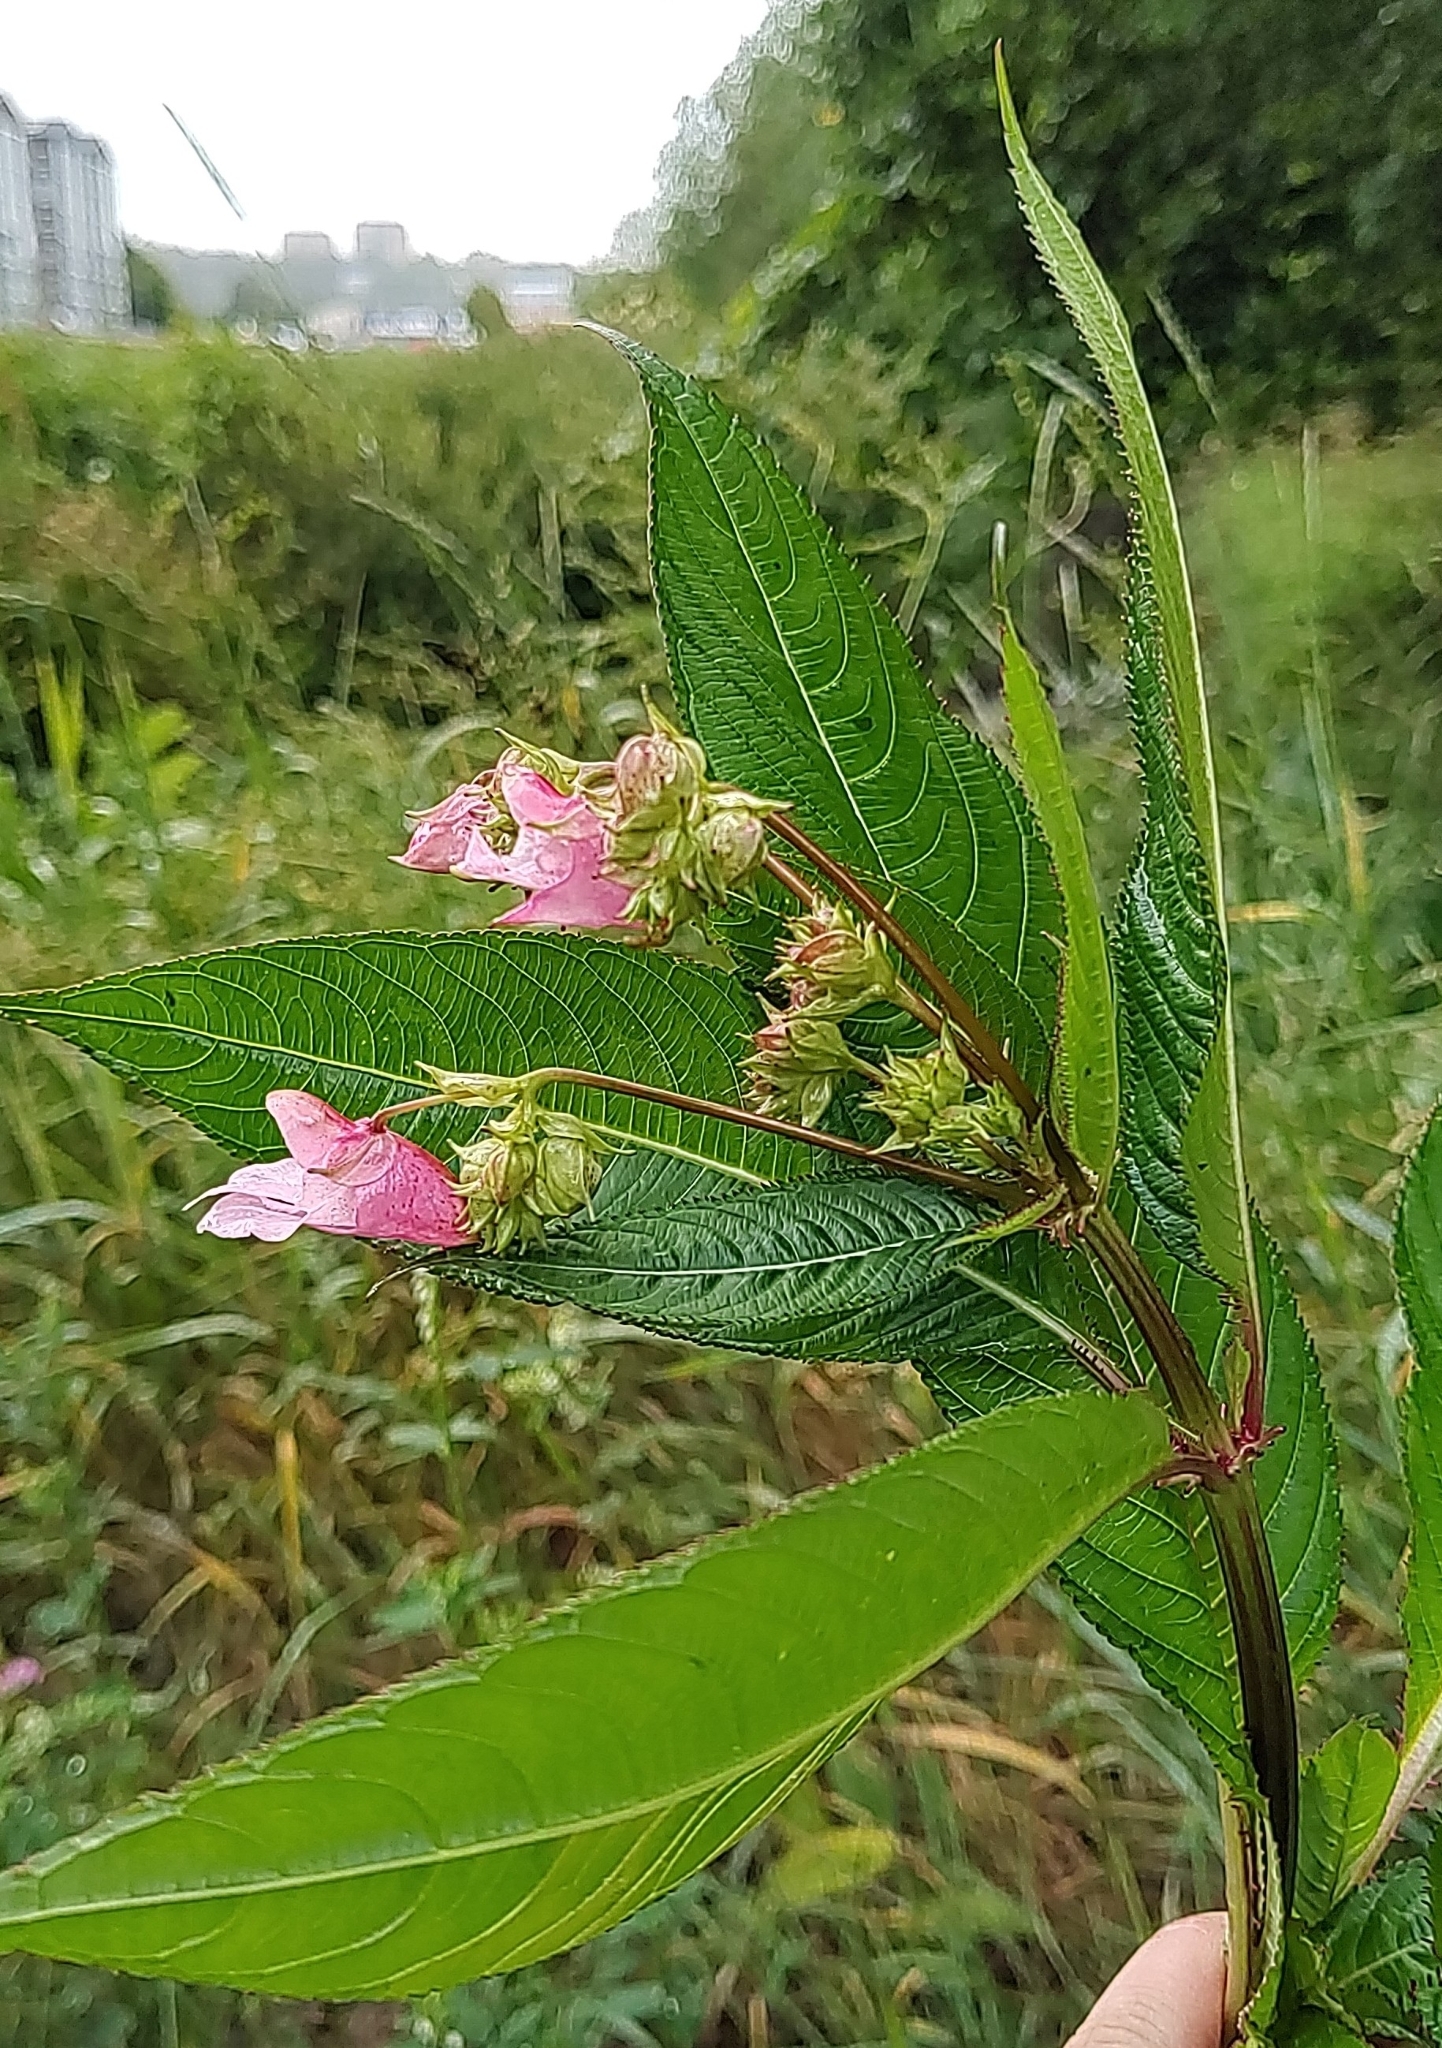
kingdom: Plantae
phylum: Tracheophyta
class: Magnoliopsida
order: Ericales
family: Balsaminaceae
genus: Impatiens
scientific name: Impatiens glandulifera
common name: Himalayan balsam
